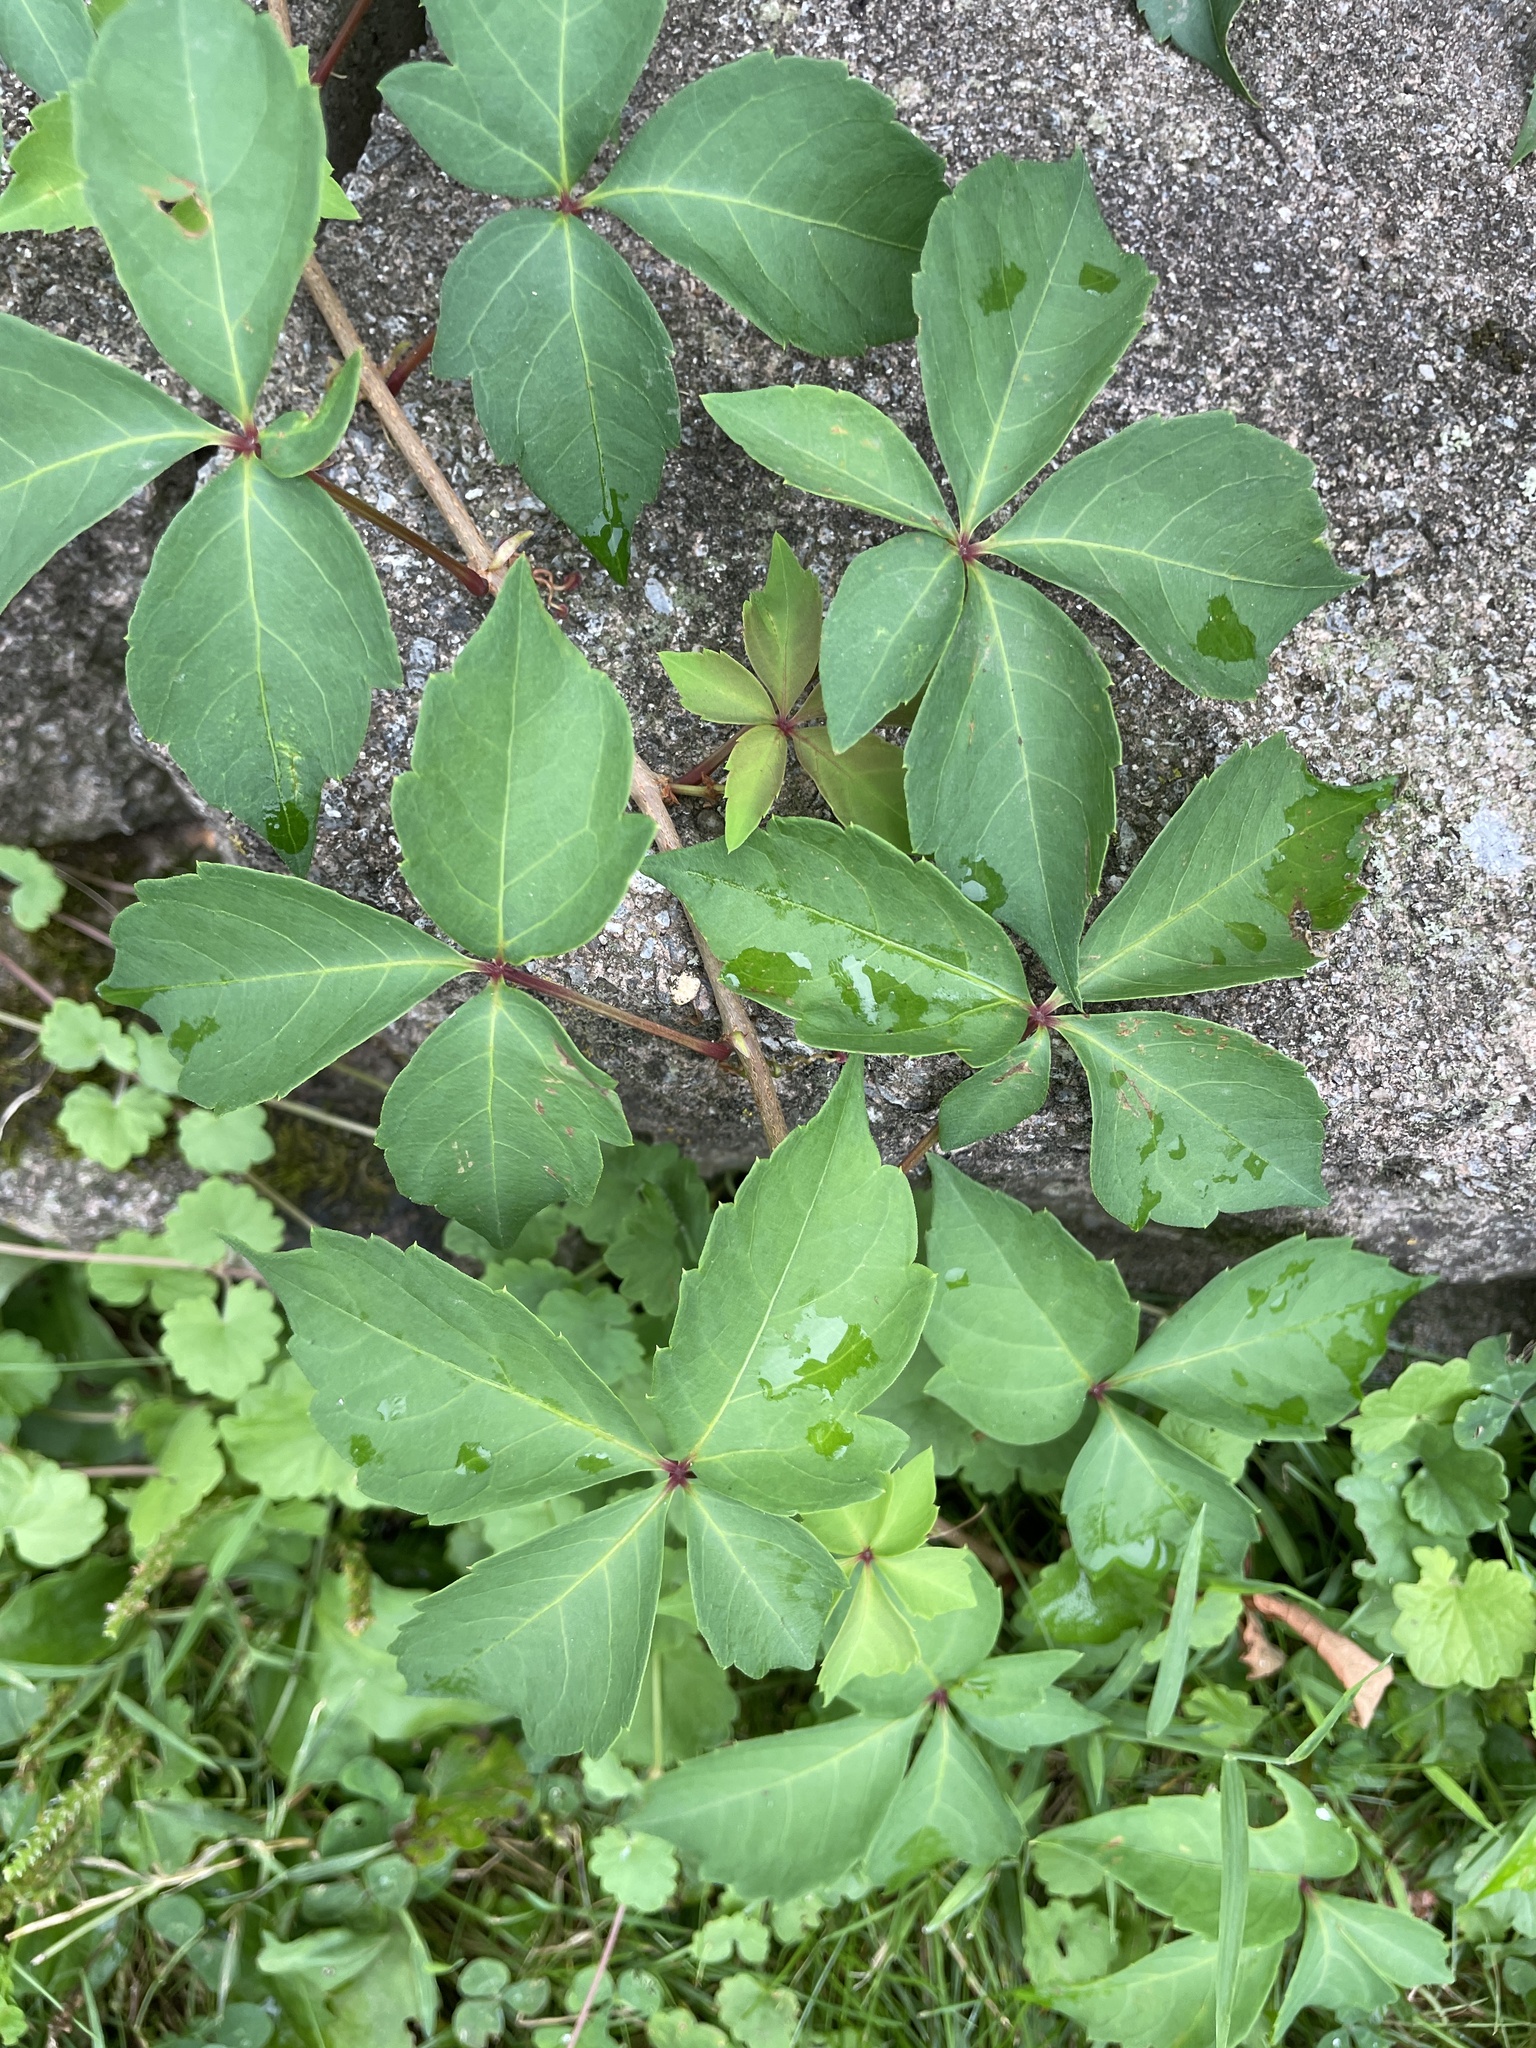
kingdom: Plantae
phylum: Tracheophyta
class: Magnoliopsida
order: Vitales
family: Vitaceae
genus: Parthenocissus
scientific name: Parthenocissus quinquefolia
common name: Virginia-creeper
